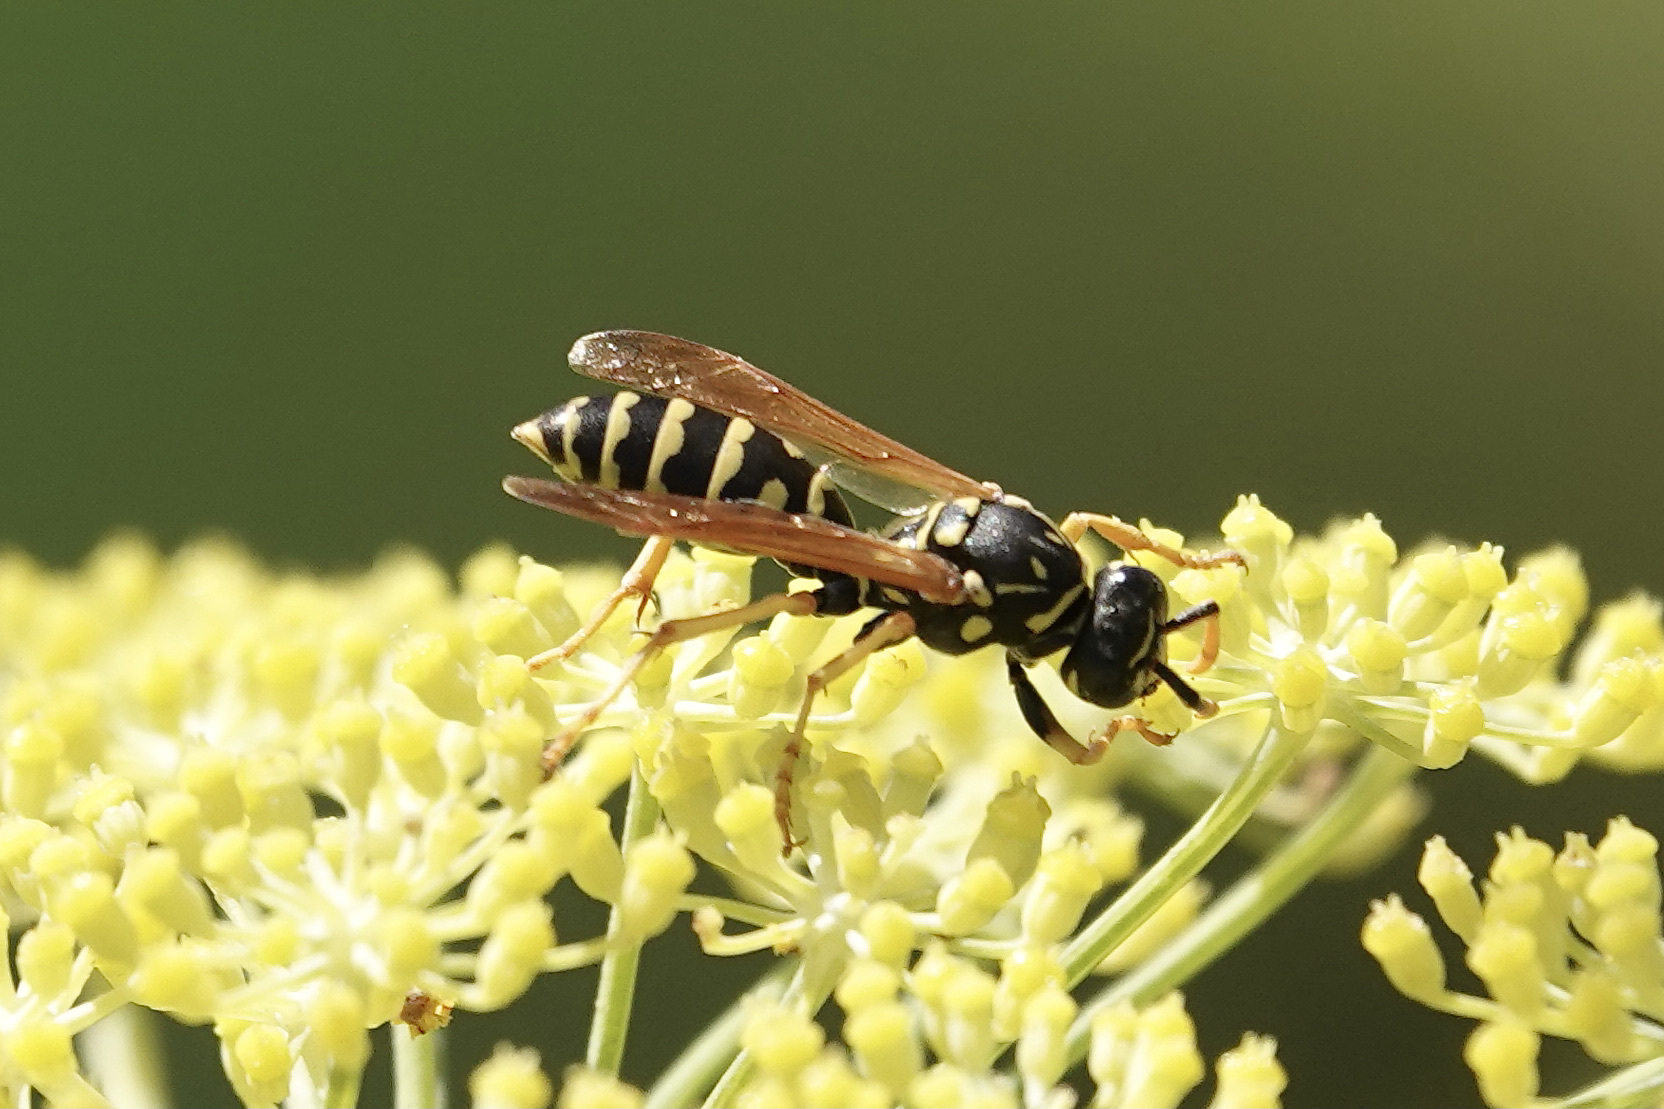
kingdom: Animalia
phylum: Arthropoda
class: Insecta
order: Hymenoptera
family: Eumenidae
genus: Polistes
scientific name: Polistes dominula
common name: Paper wasp
